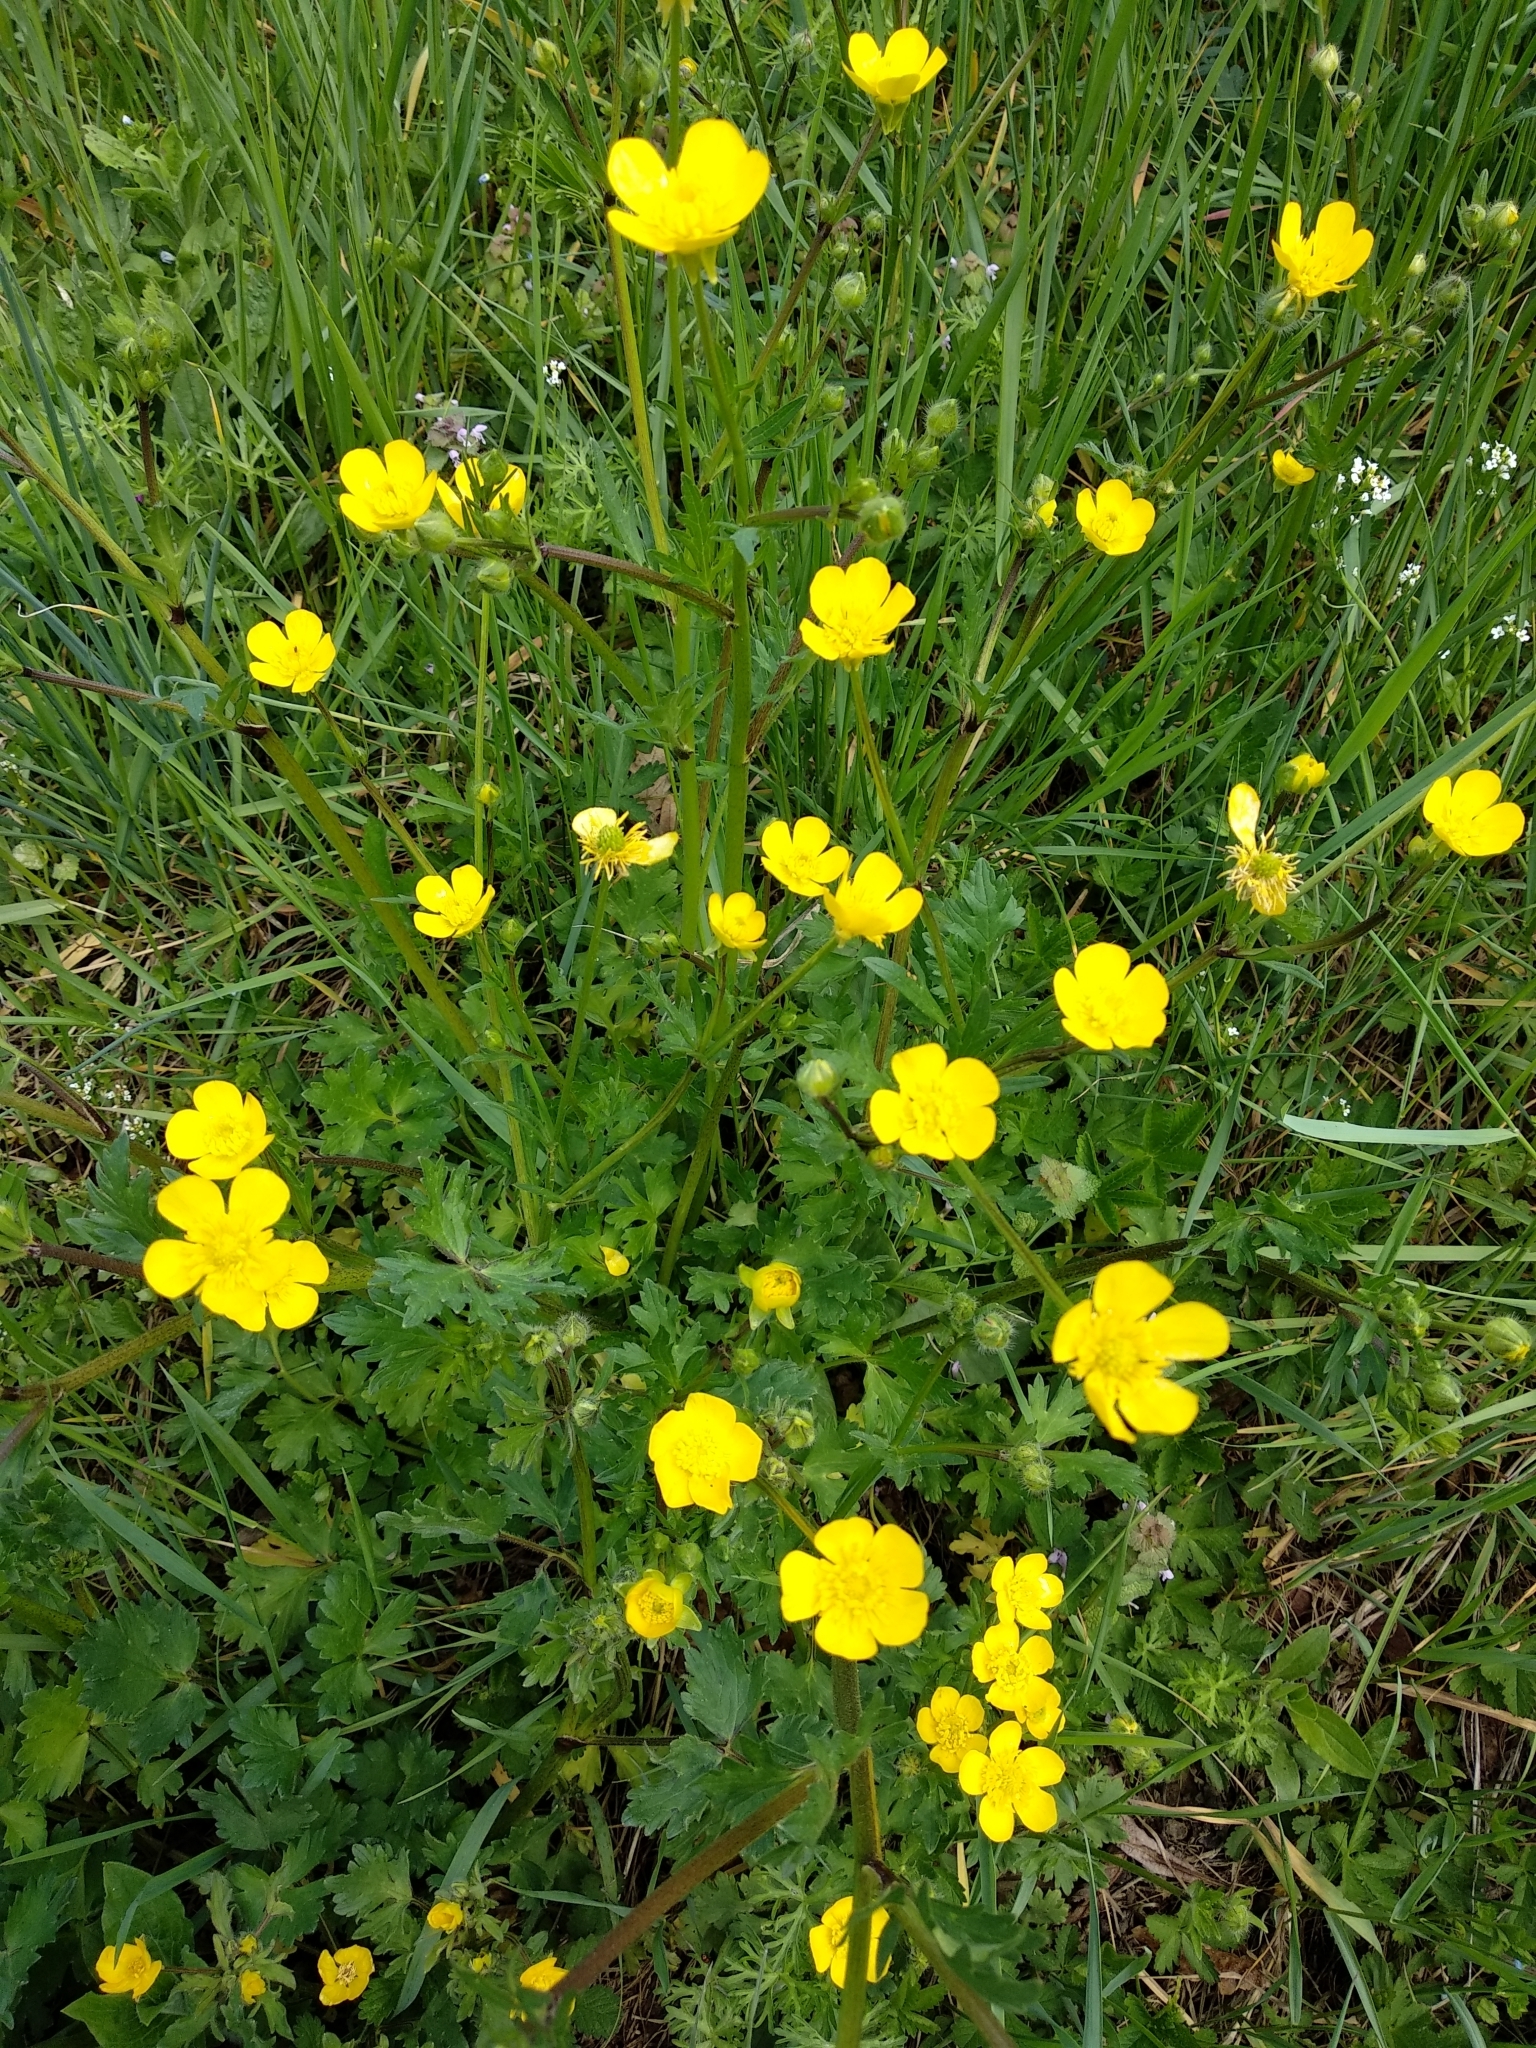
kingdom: Plantae
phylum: Tracheophyta
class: Magnoliopsida
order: Ranunculales
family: Ranunculaceae
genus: Ranunculus
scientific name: Ranunculus bulbosus
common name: Bulbous buttercup
